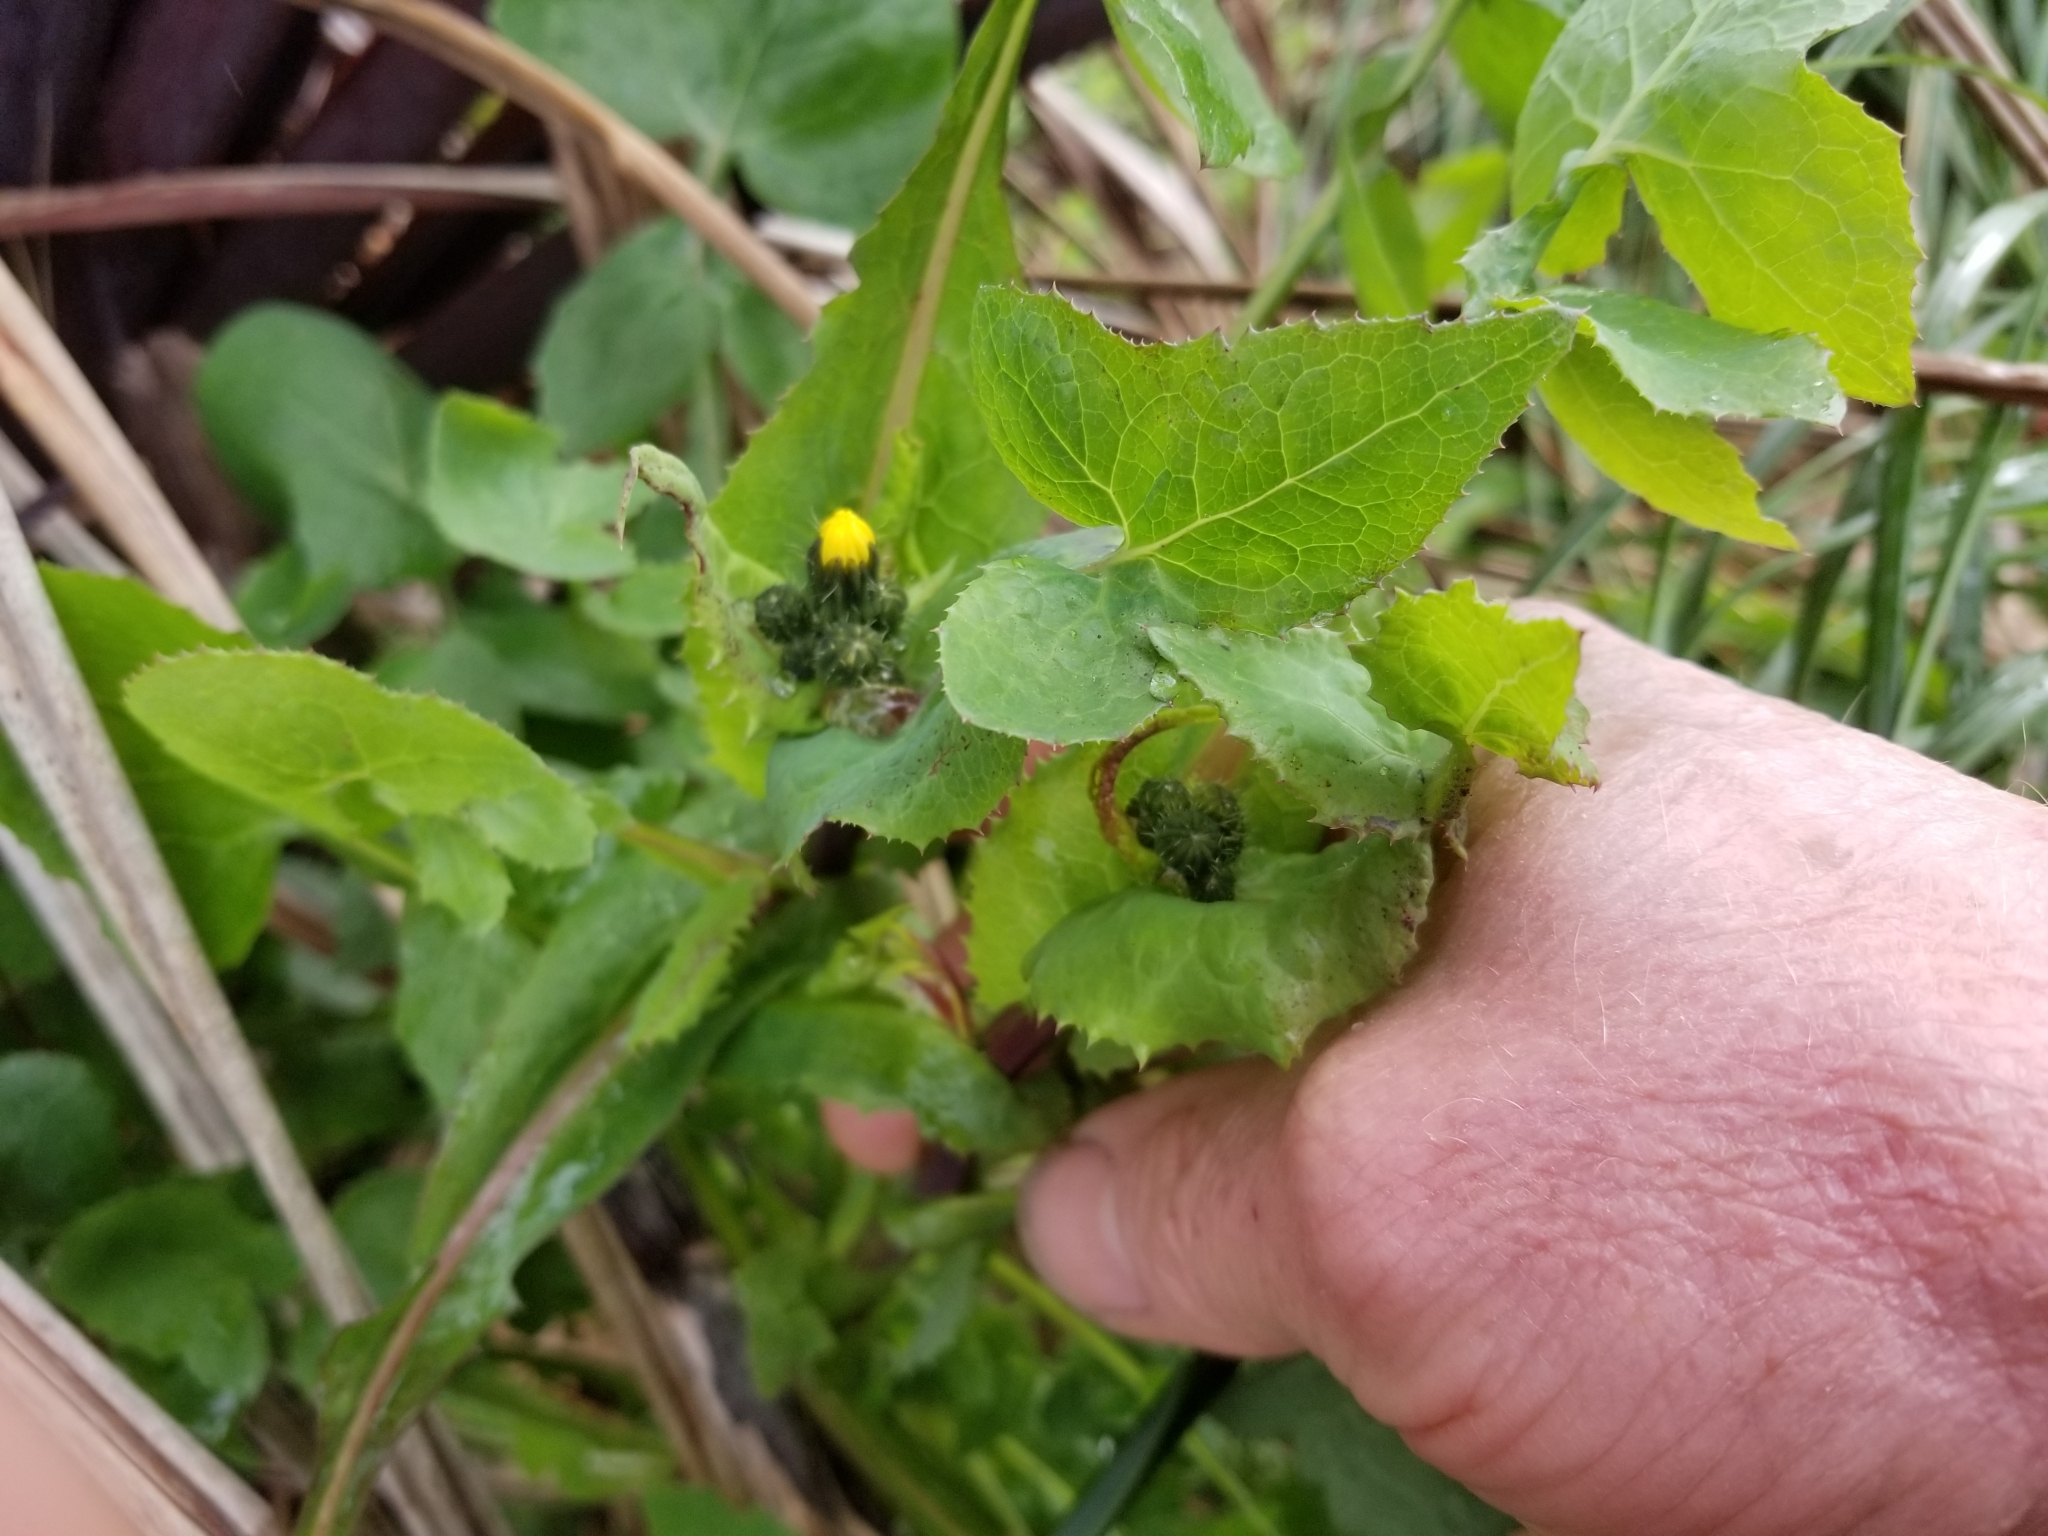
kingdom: Plantae
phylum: Tracheophyta
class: Magnoliopsida
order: Asterales
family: Asteraceae
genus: Sonchus
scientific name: Sonchus oleraceus
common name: Common sowthistle
